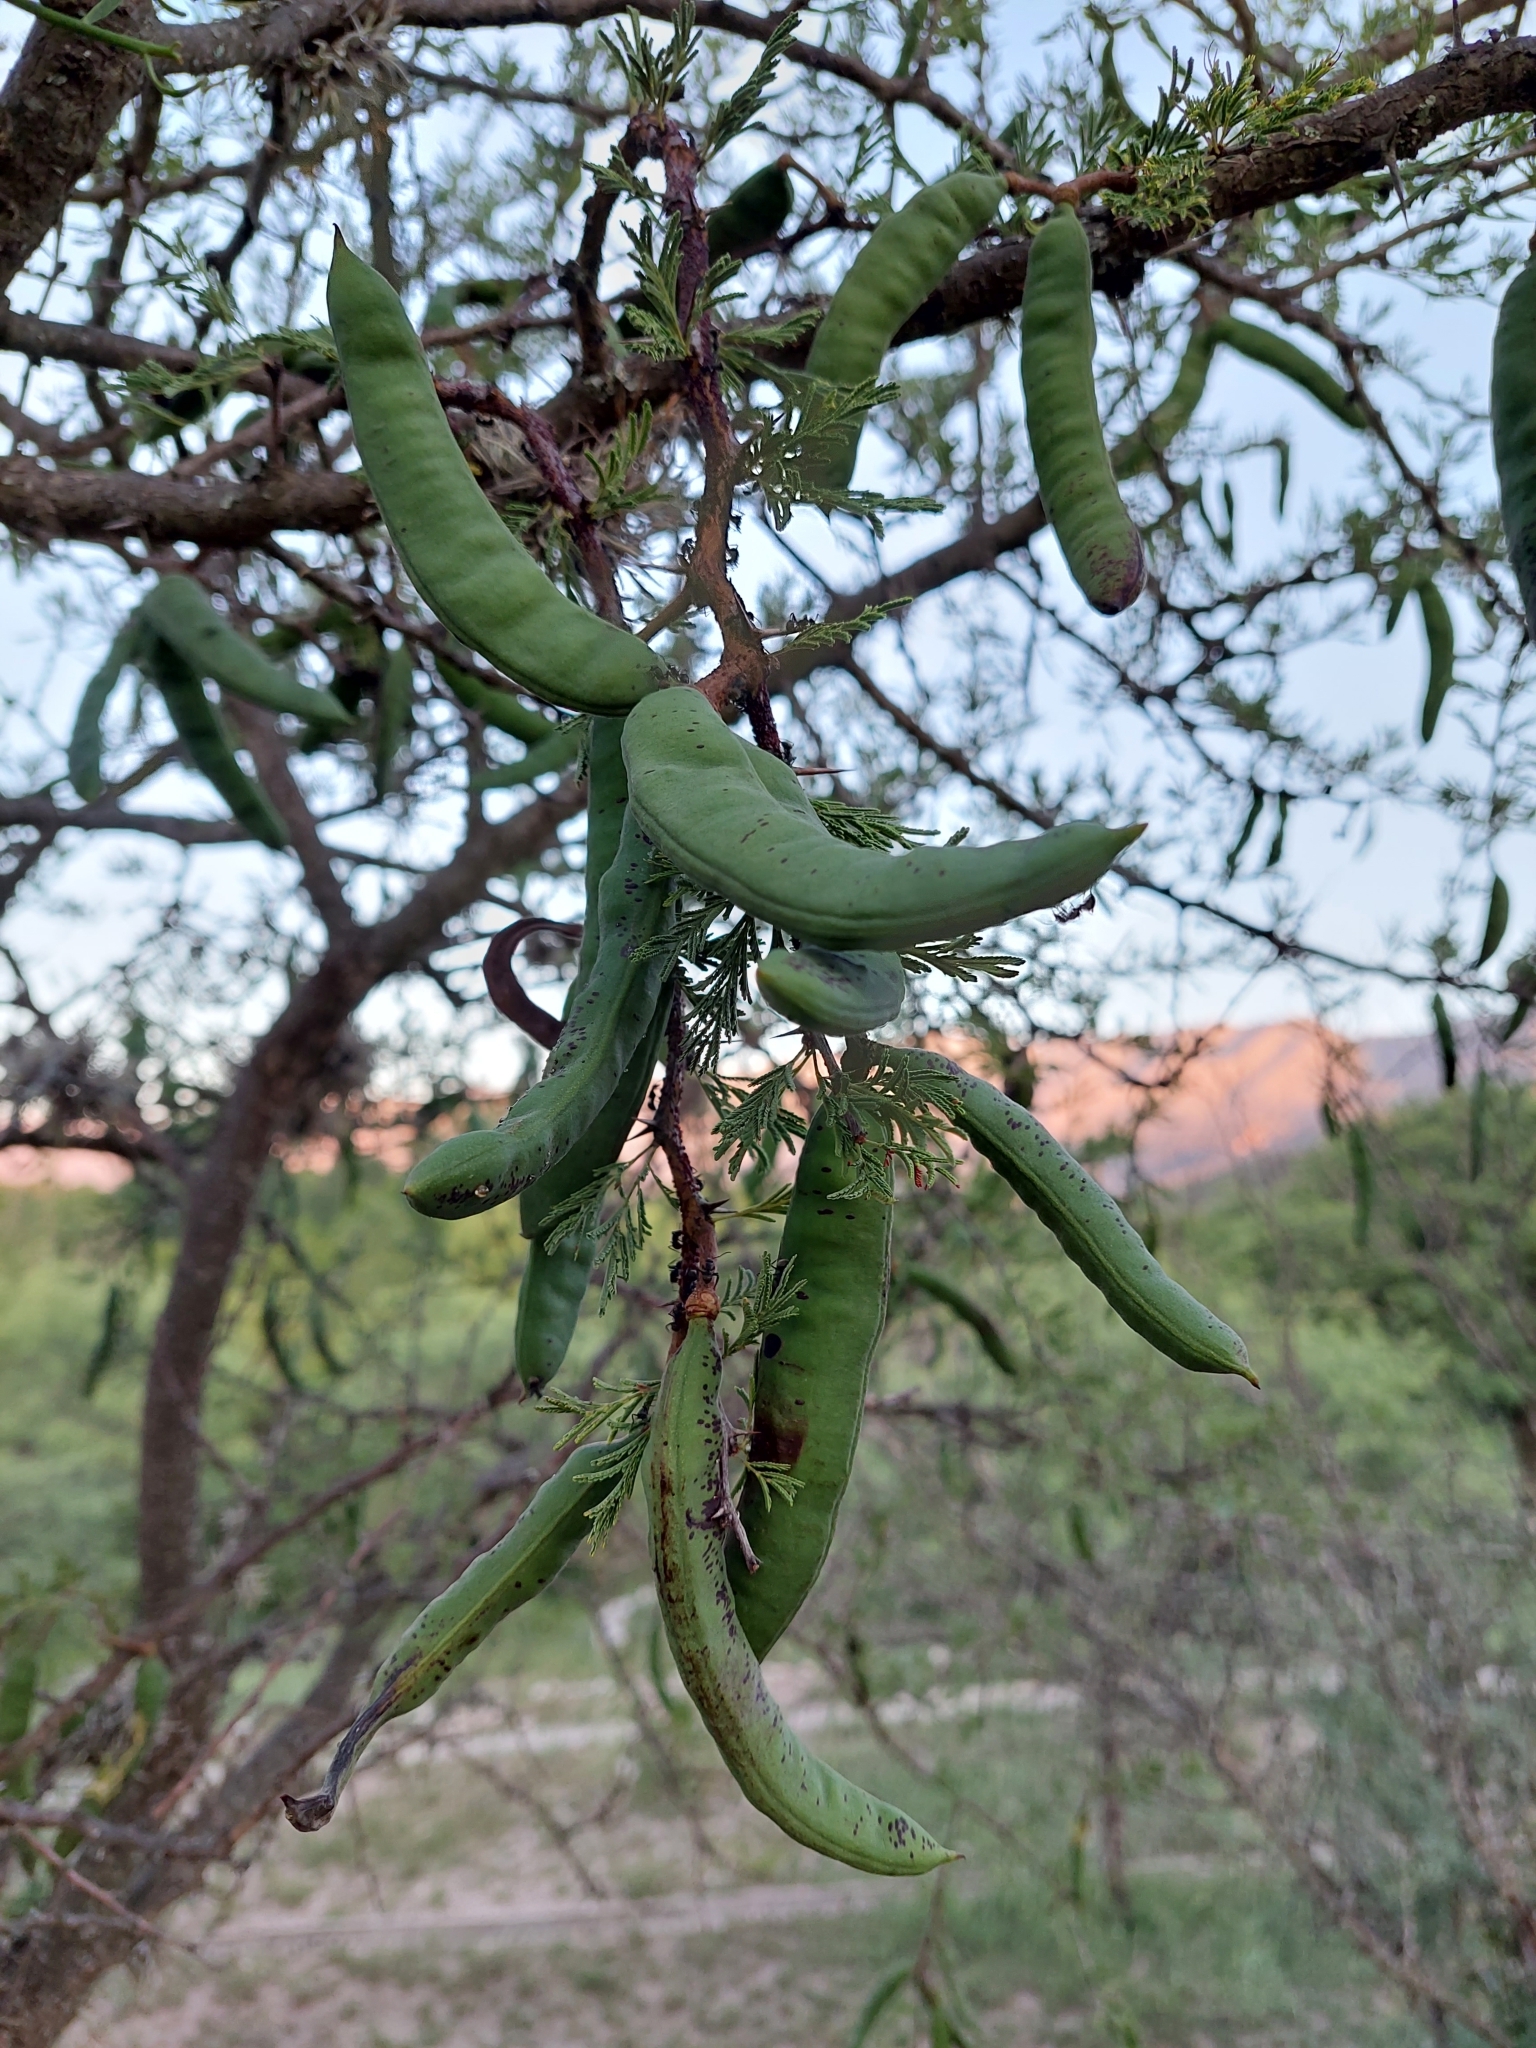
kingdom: Plantae
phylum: Tracheophyta
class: Magnoliopsida
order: Fabales
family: Fabaceae
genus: Vachellia
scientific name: Vachellia astringens
